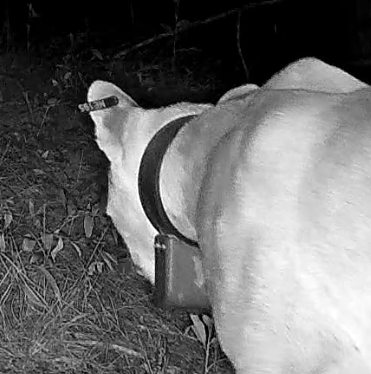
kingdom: Animalia
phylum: Chordata
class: Mammalia
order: Carnivora
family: Felidae
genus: Puma
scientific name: Puma concolor
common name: Puma
